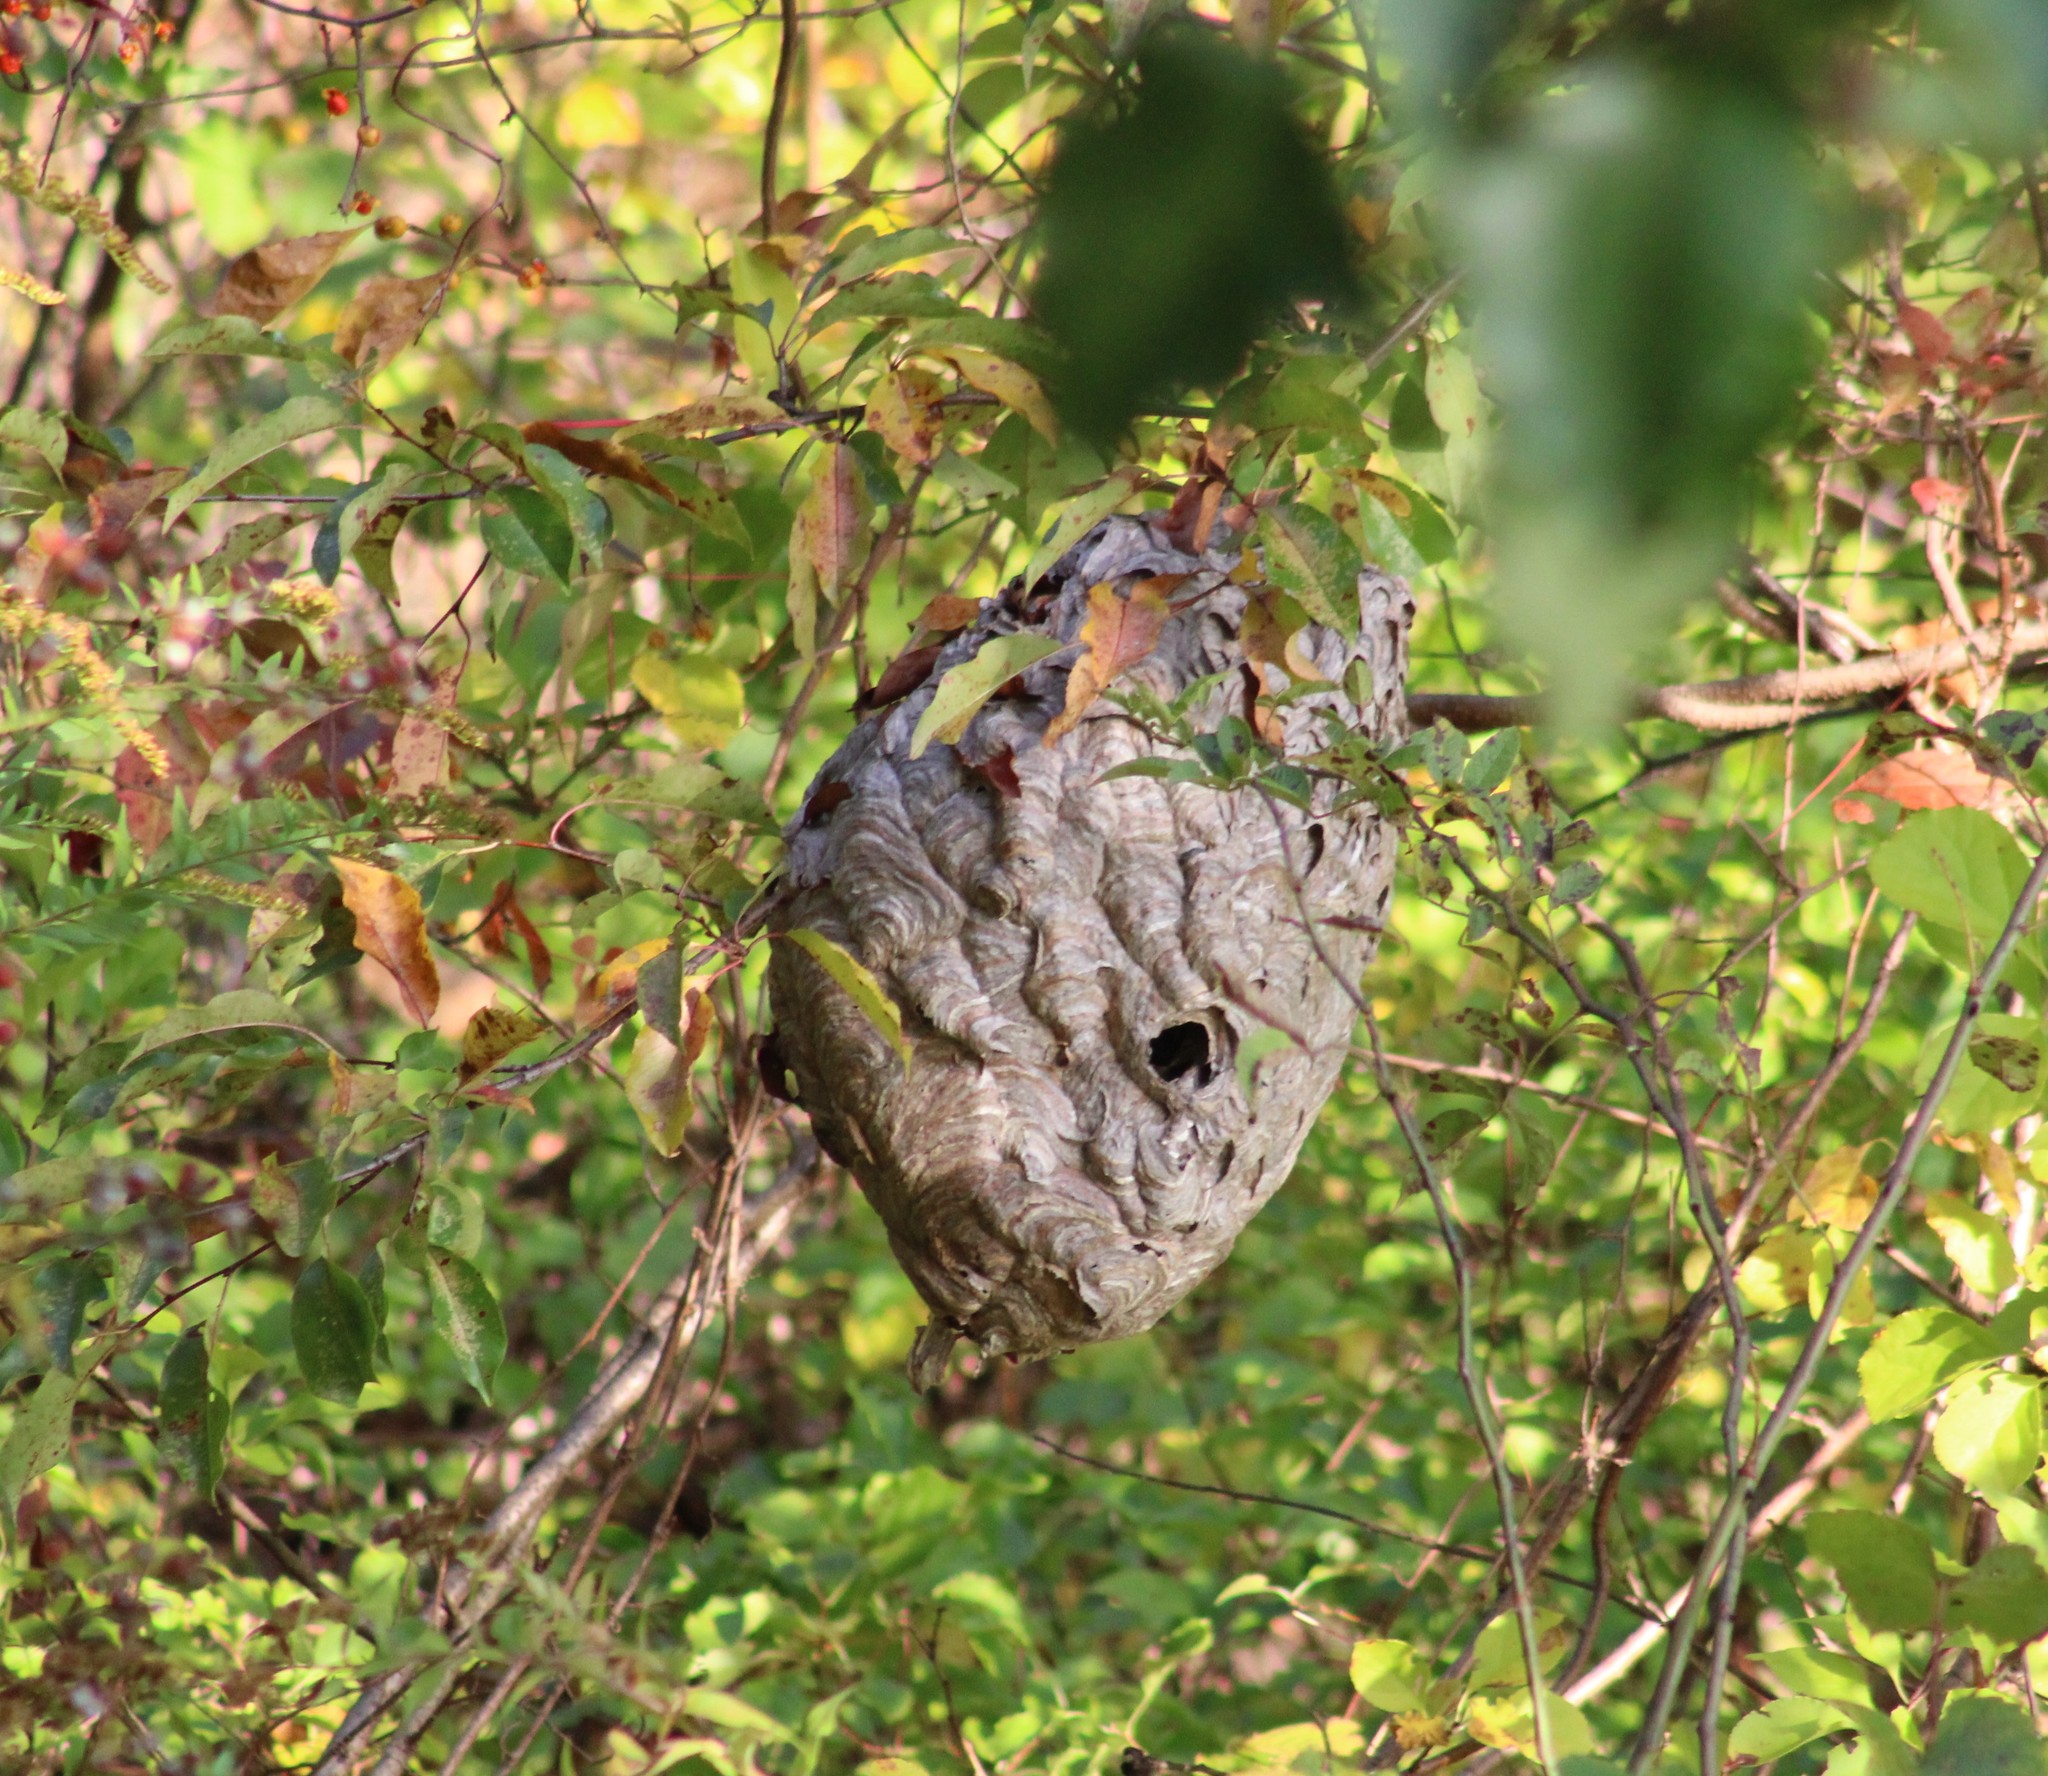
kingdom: Animalia
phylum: Arthropoda
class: Insecta
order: Hymenoptera
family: Vespidae
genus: Dolichovespula
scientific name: Dolichovespula maculata
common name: Bald-faced hornet
